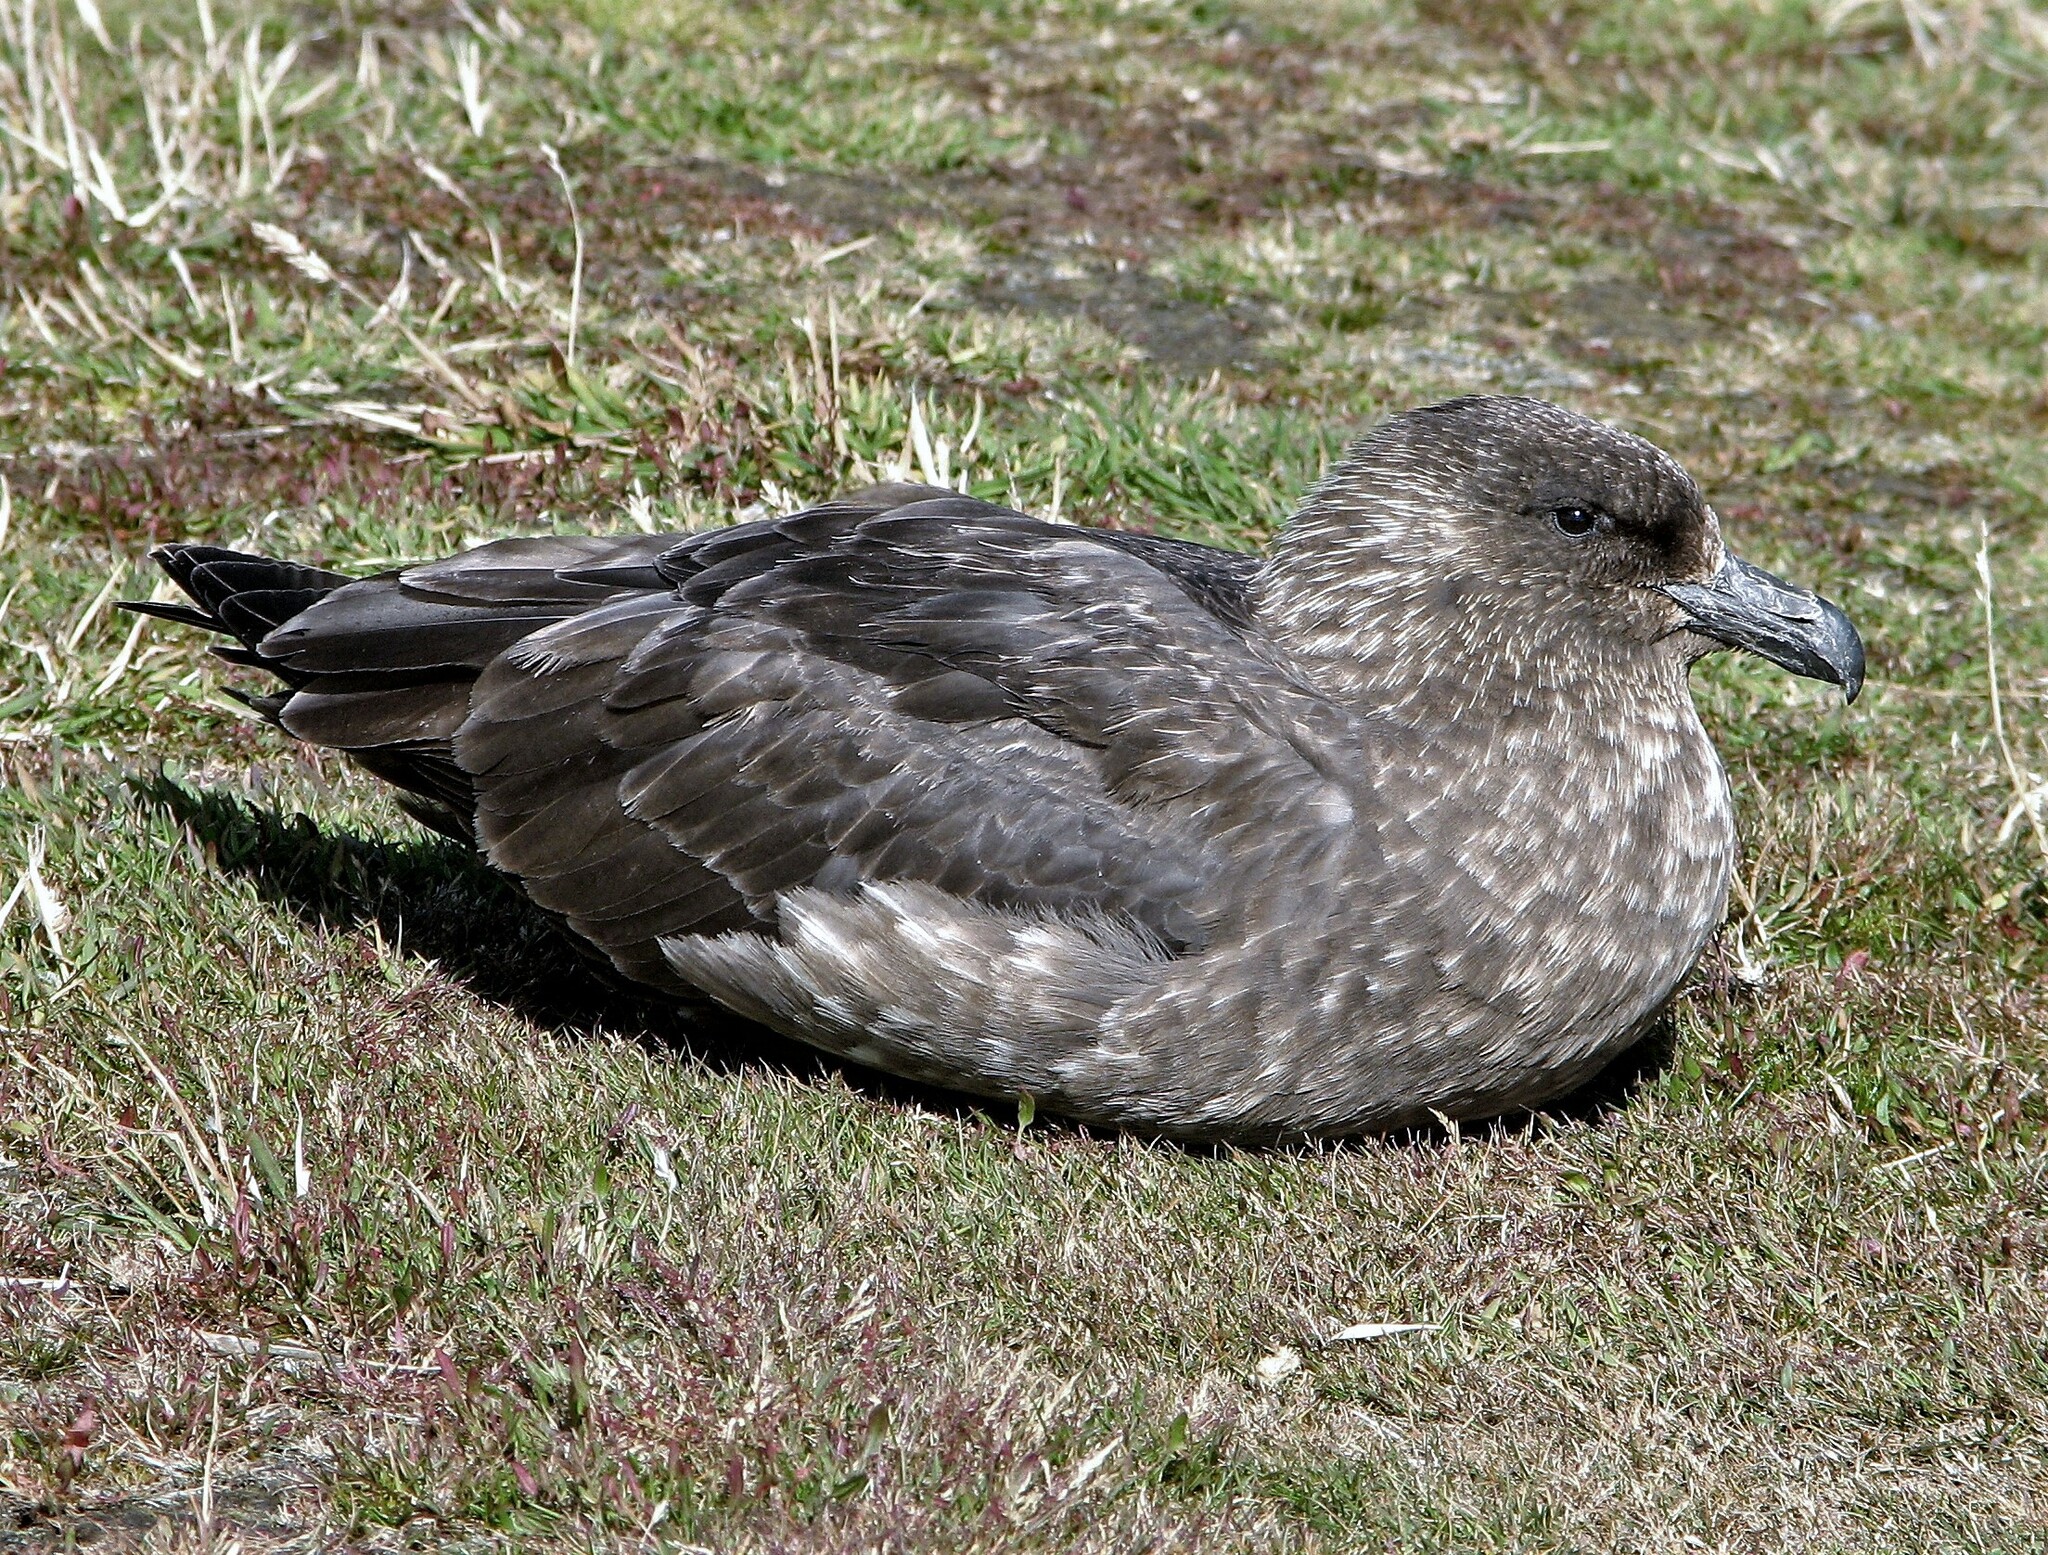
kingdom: Animalia
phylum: Chordata
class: Aves
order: Charadriiformes
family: Stercorariidae
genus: Stercorarius
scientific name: Stercorarius antarcticus
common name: Brown skua
